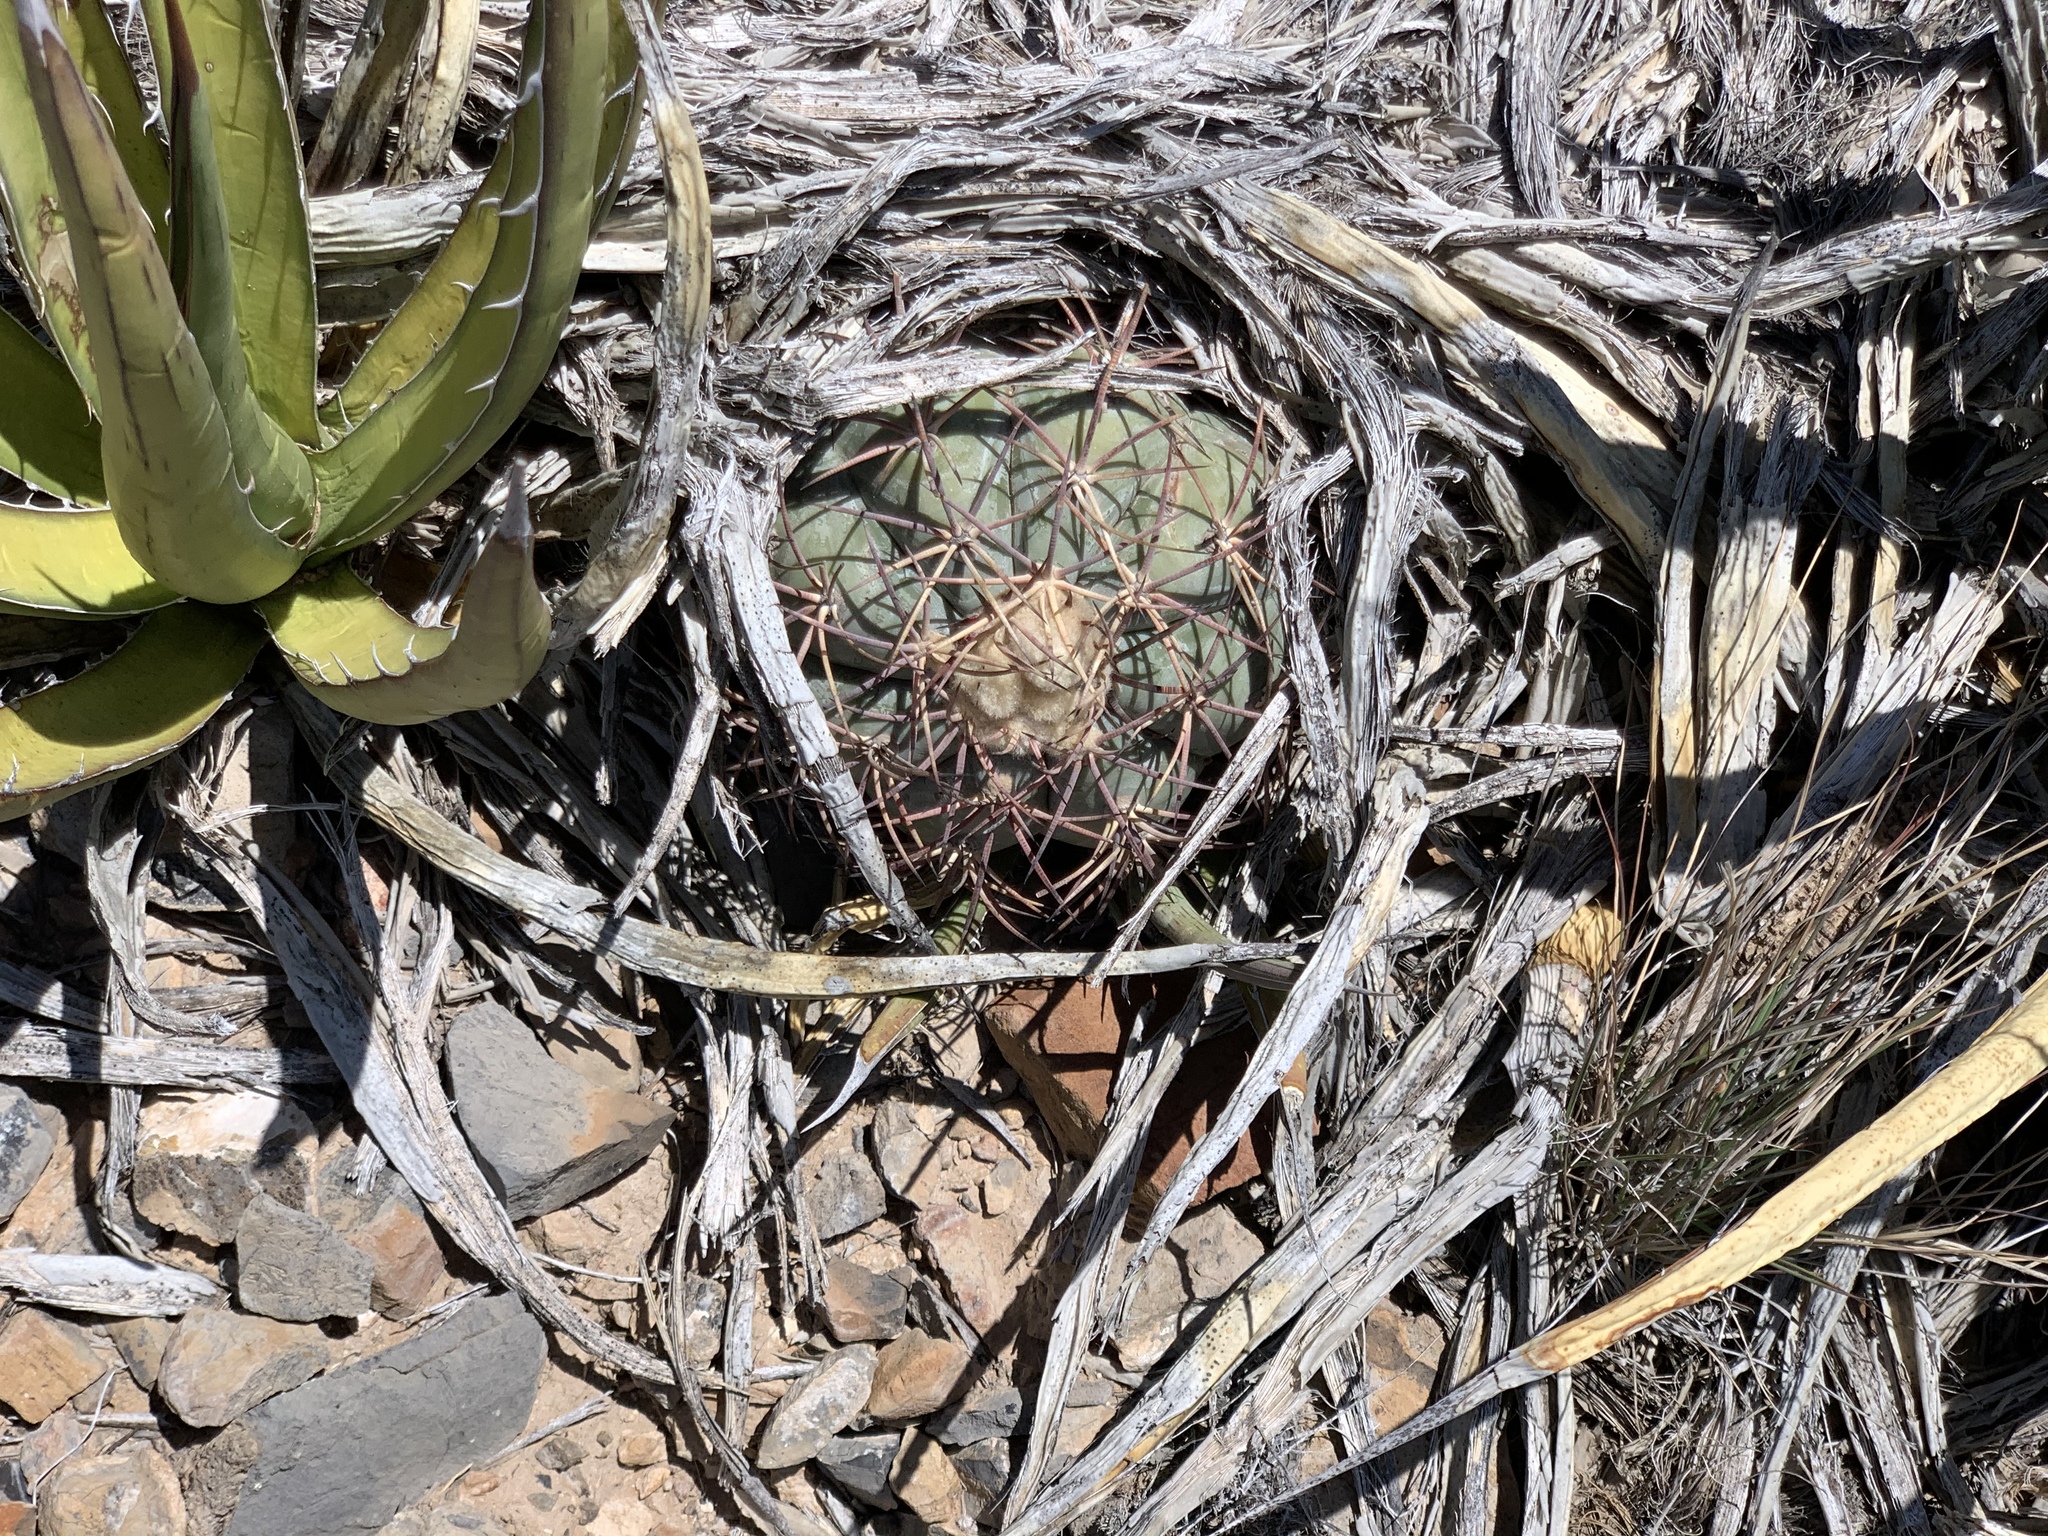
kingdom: Plantae
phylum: Tracheophyta
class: Magnoliopsida
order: Caryophyllales
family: Cactaceae
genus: Echinocactus
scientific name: Echinocactus horizonthalonius
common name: Devilshead
